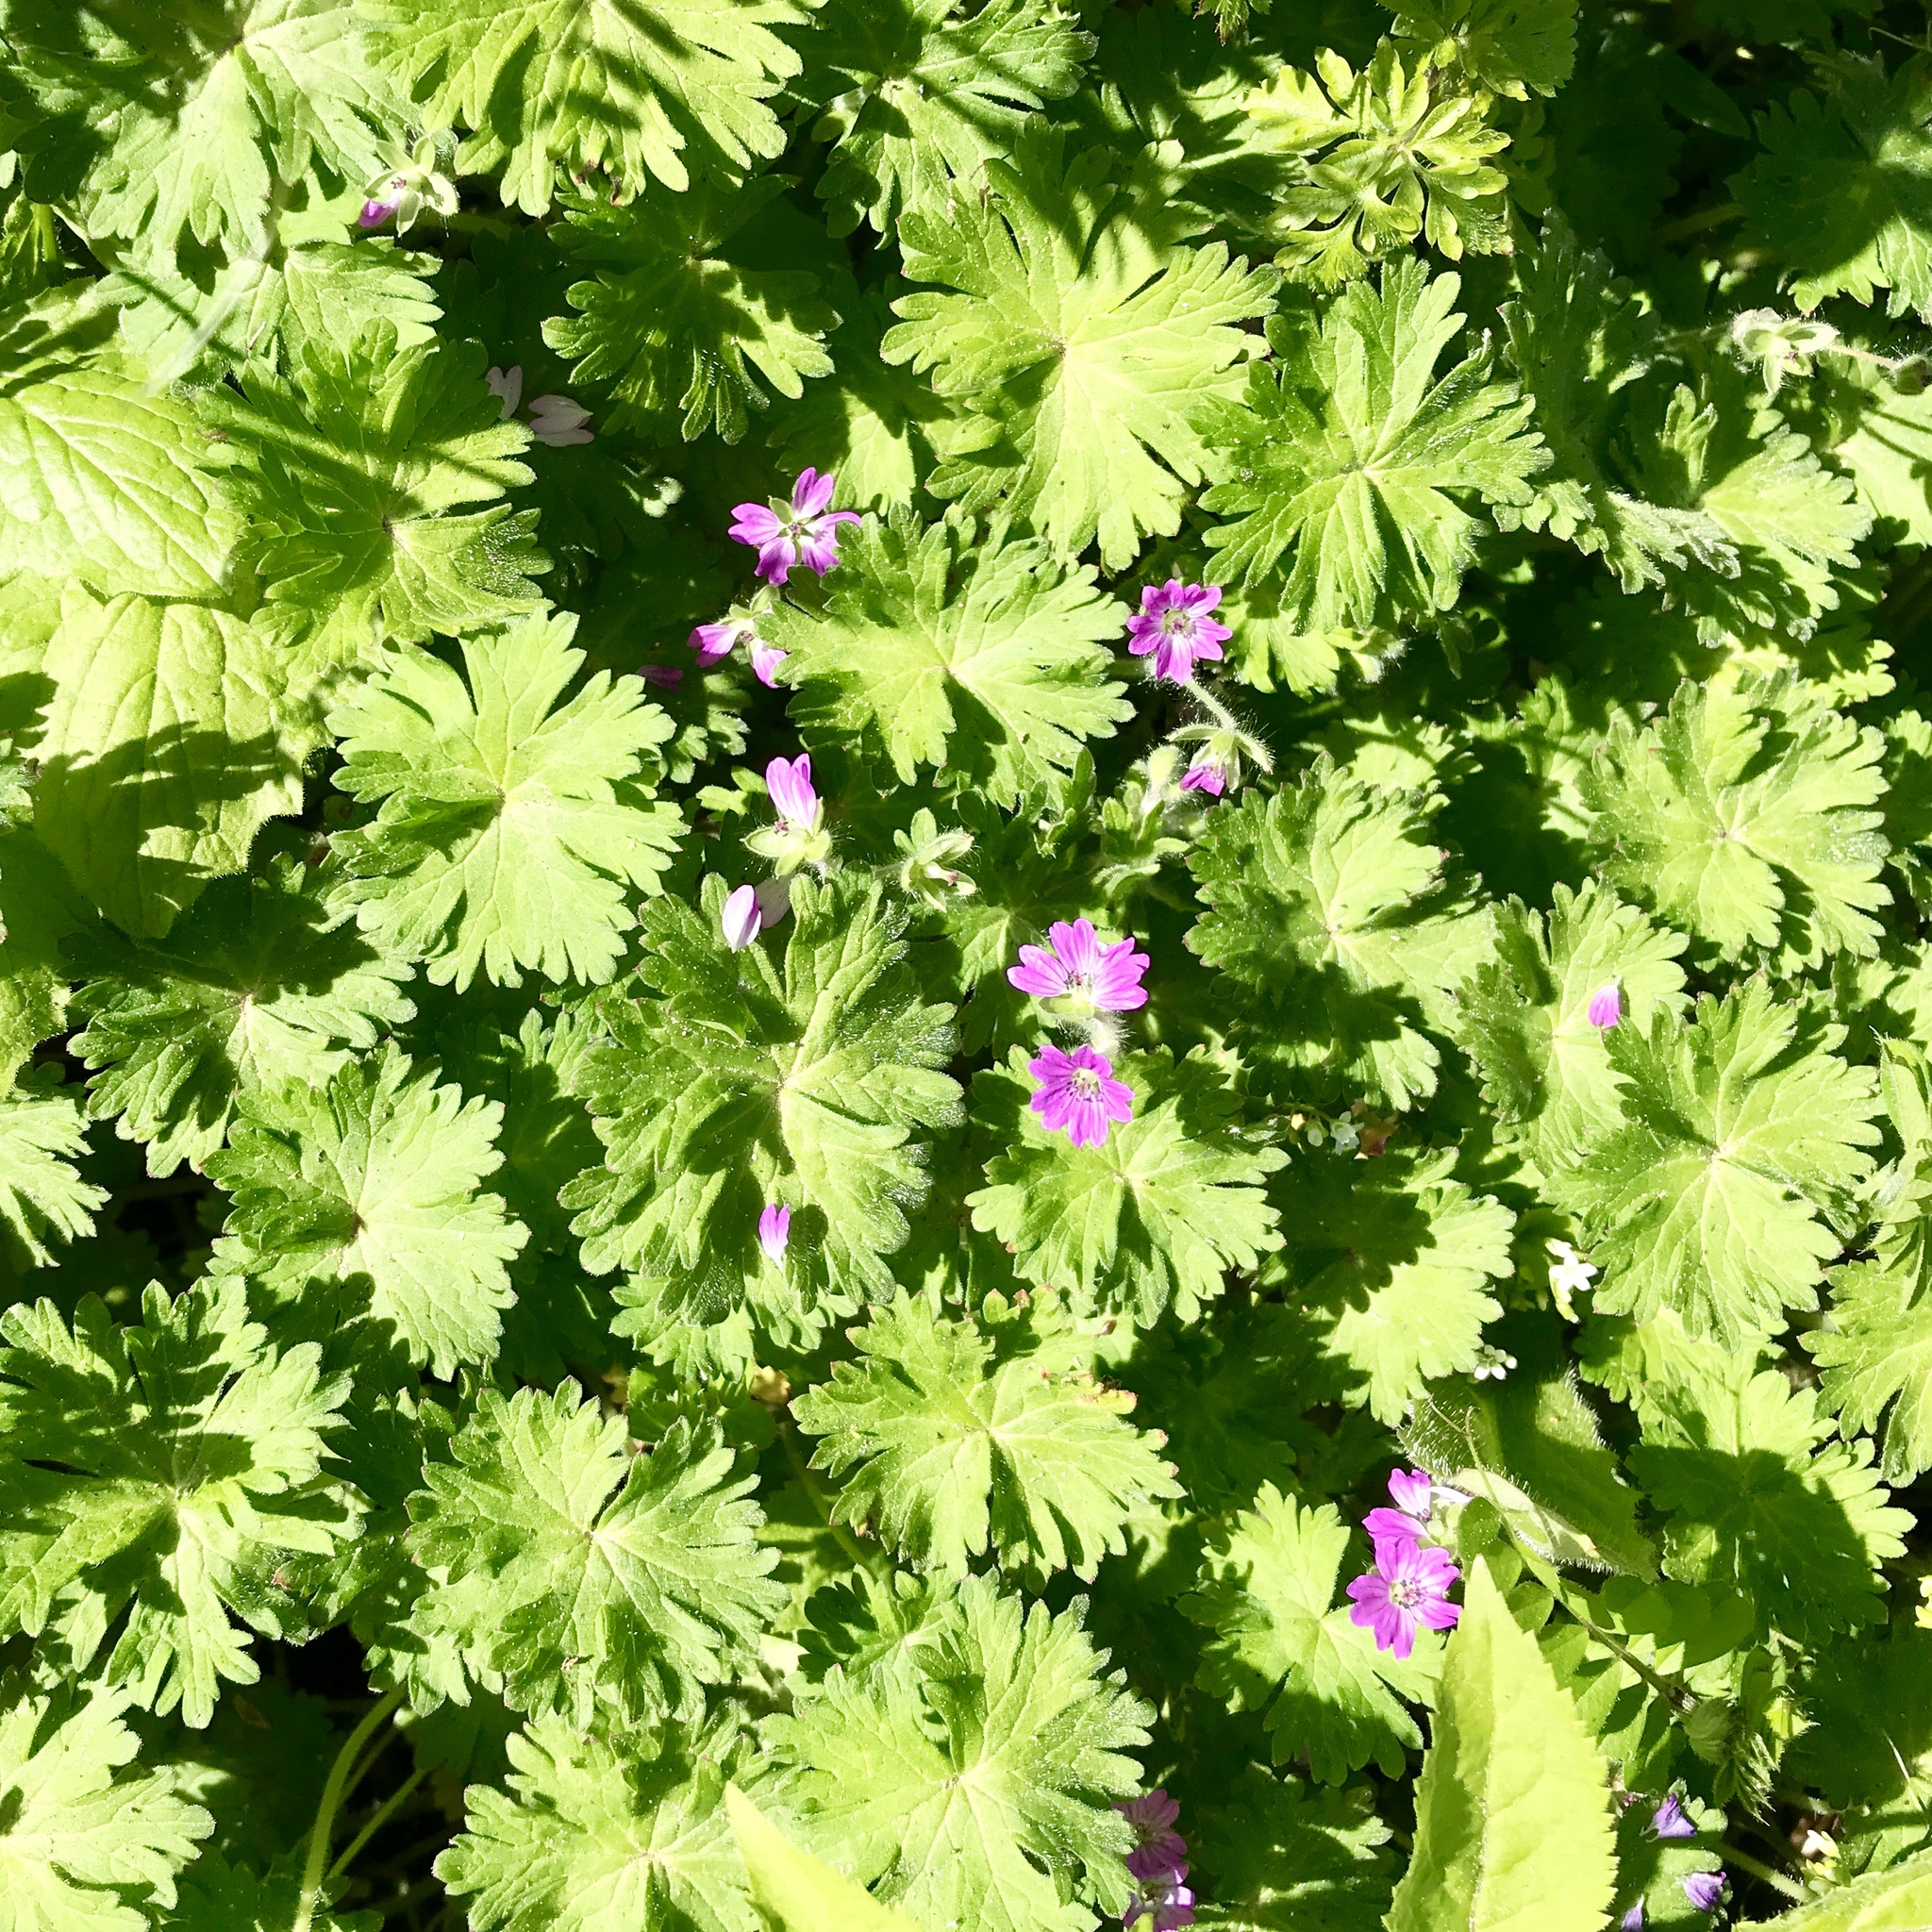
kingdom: Plantae
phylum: Tracheophyta
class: Magnoliopsida
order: Geraniales
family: Geraniaceae
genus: Geranium
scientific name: Geranium molle
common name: Dove's-foot crane's-bill
